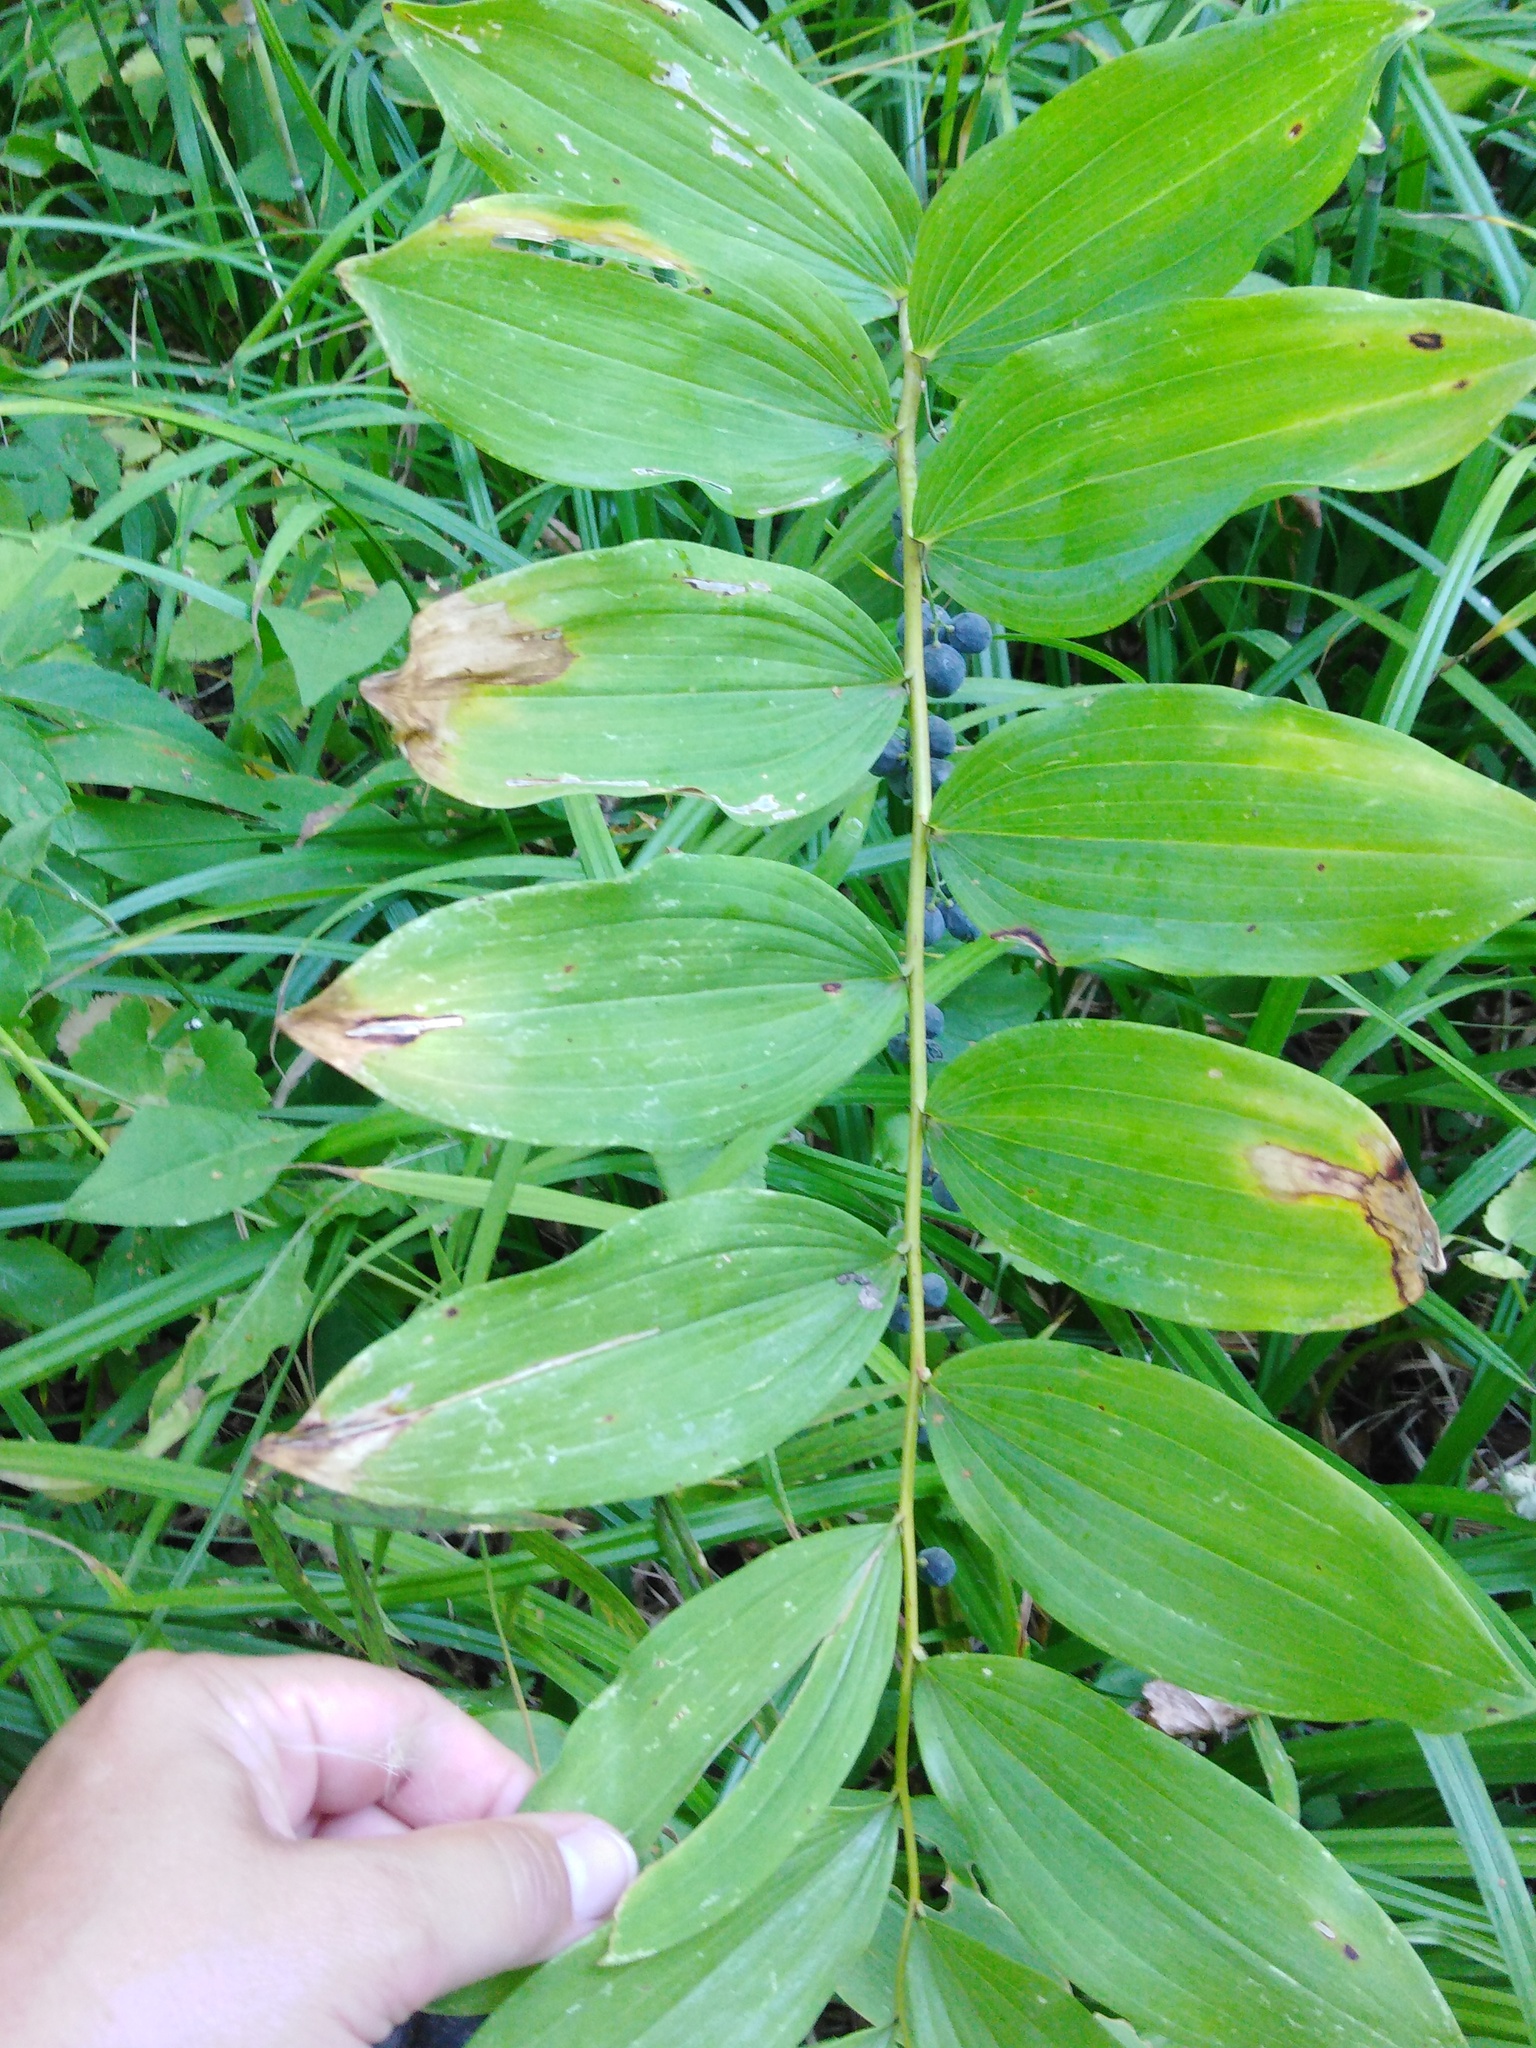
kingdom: Plantae
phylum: Tracheophyta
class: Liliopsida
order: Asparagales
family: Asparagaceae
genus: Polygonatum
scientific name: Polygonatum multiflorum
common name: Solomon's-seal
